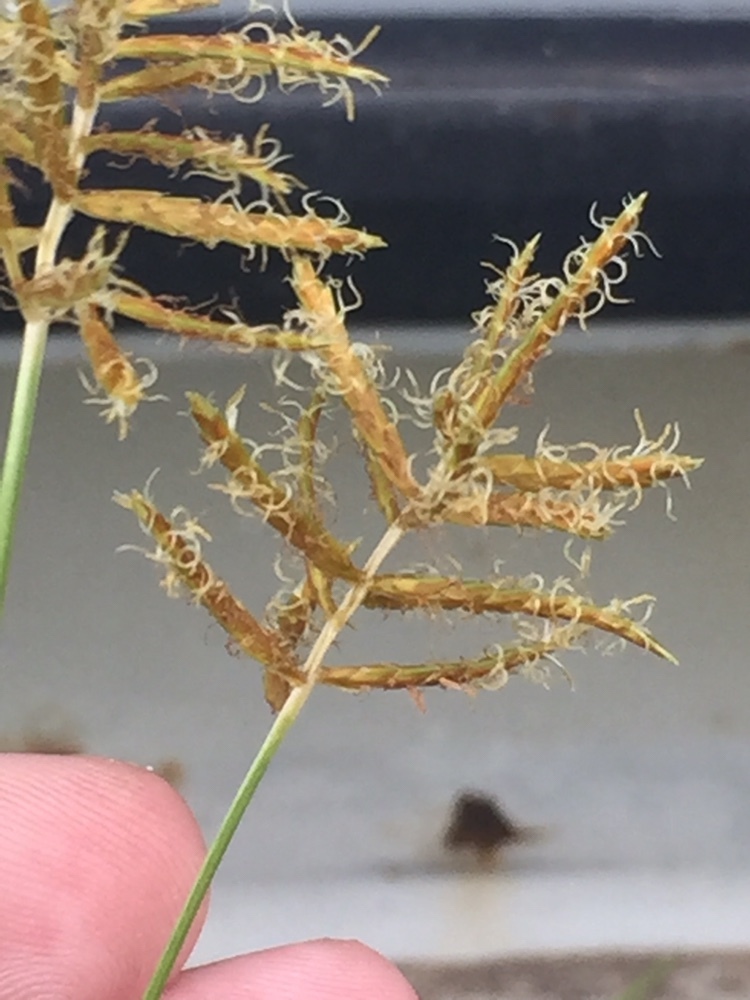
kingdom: Plantae
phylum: Tracheophyta
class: Liliopsida
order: Poales
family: Cyperaceae
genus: Cyperus
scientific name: Cyperus esculentus
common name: Yellow nutsedge
